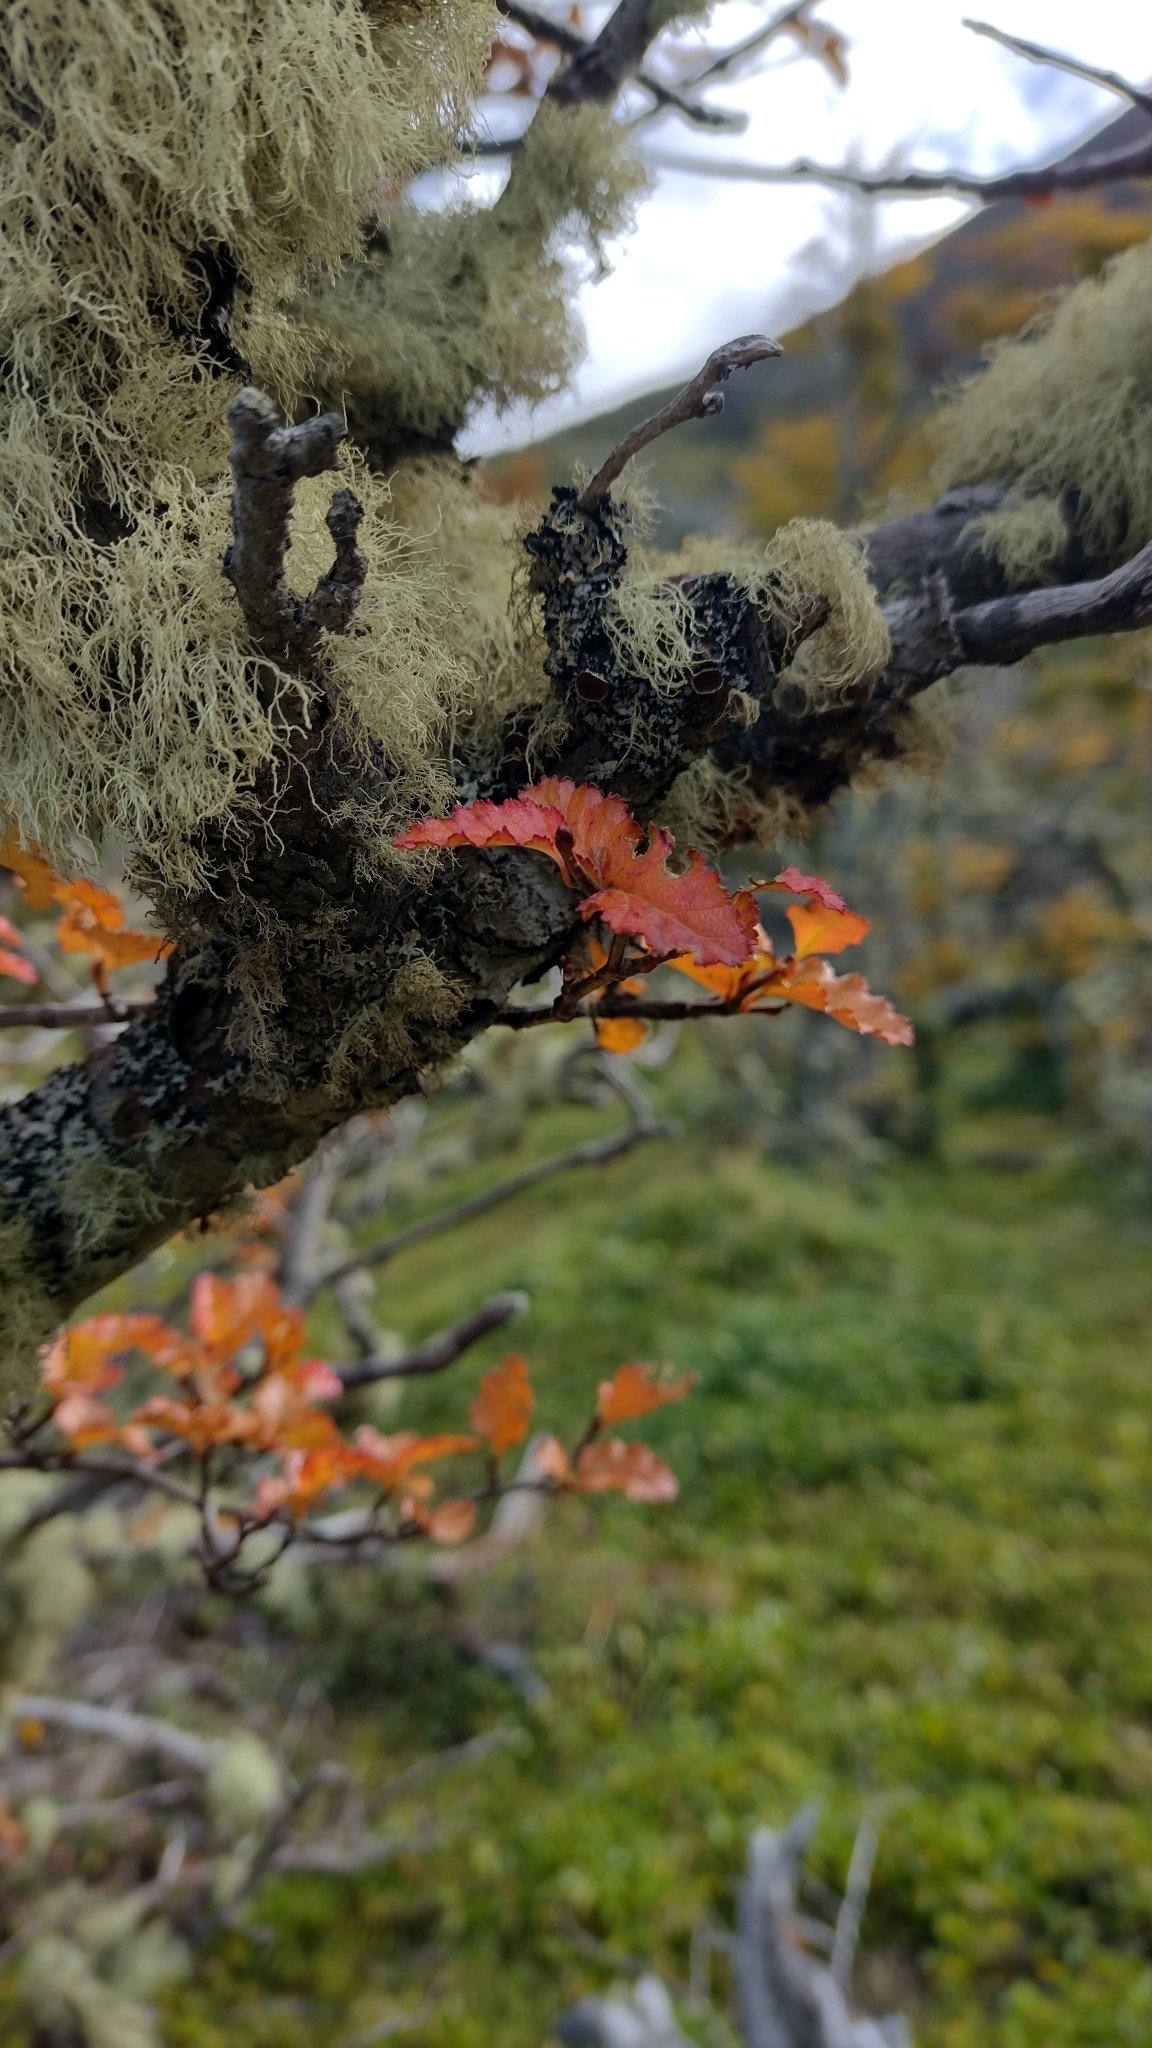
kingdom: Plantae
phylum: Tracheophyta
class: Magnoliopsida
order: Fagales
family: Nothofagaceae
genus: Nothofagus
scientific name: Nothofagus antarctica
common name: Antarctic beech
